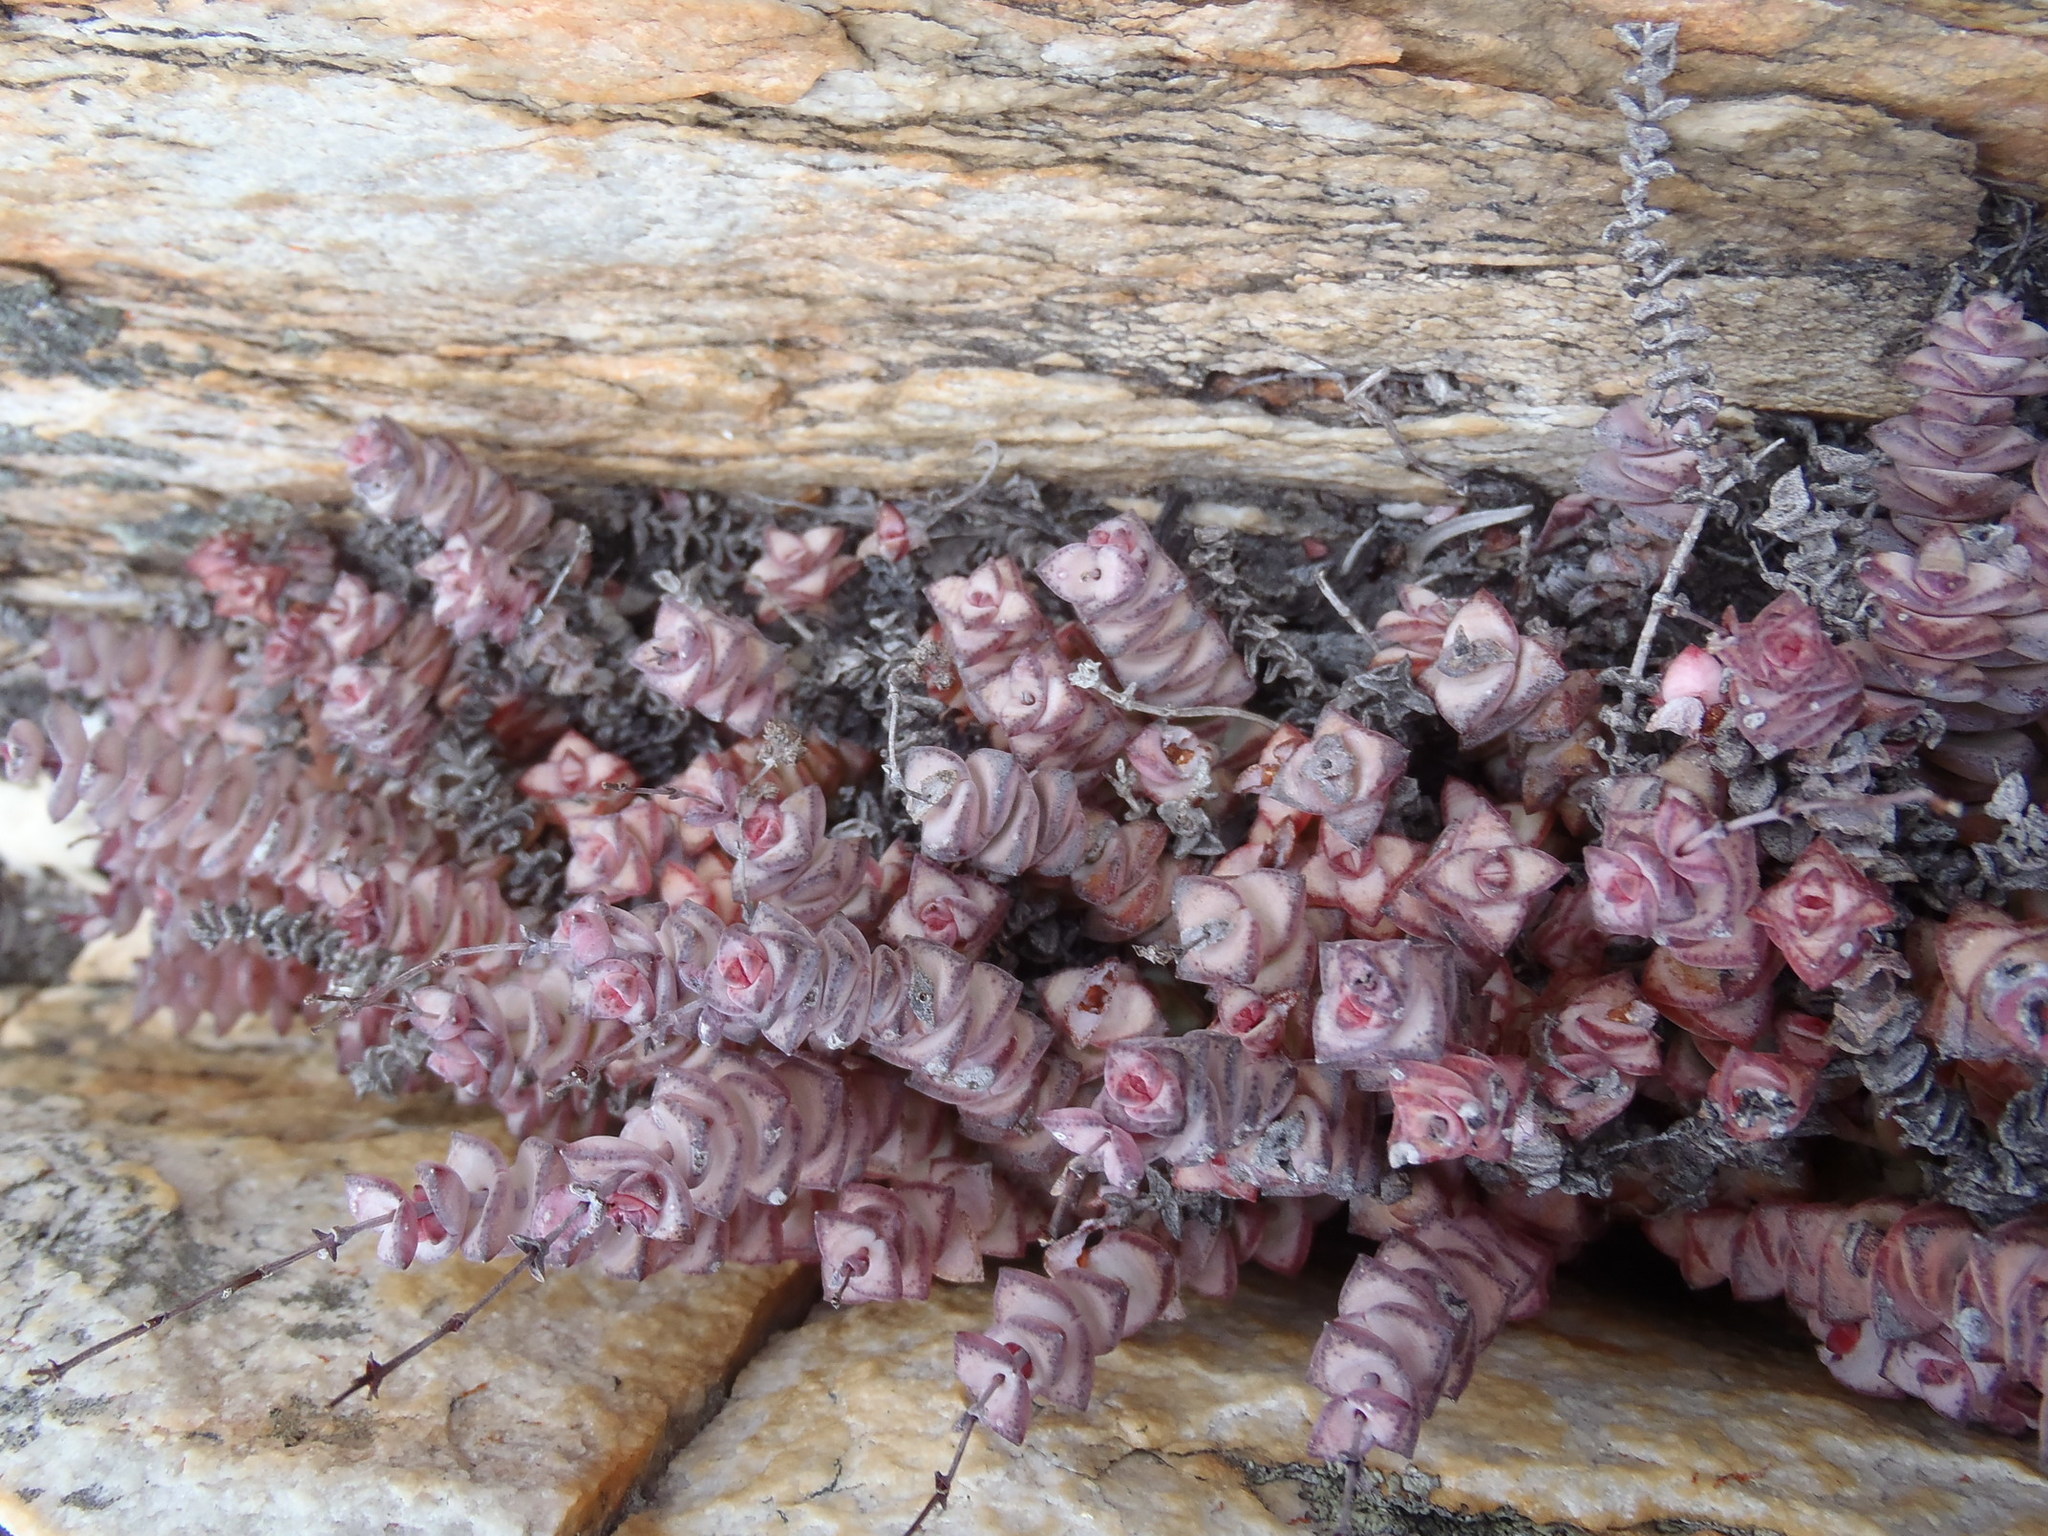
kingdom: Plantae
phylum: Tracheophyta
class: Magnoliopsida
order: Saxifragales
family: Crassulaceae
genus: Crassula
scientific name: Crassula perforata
